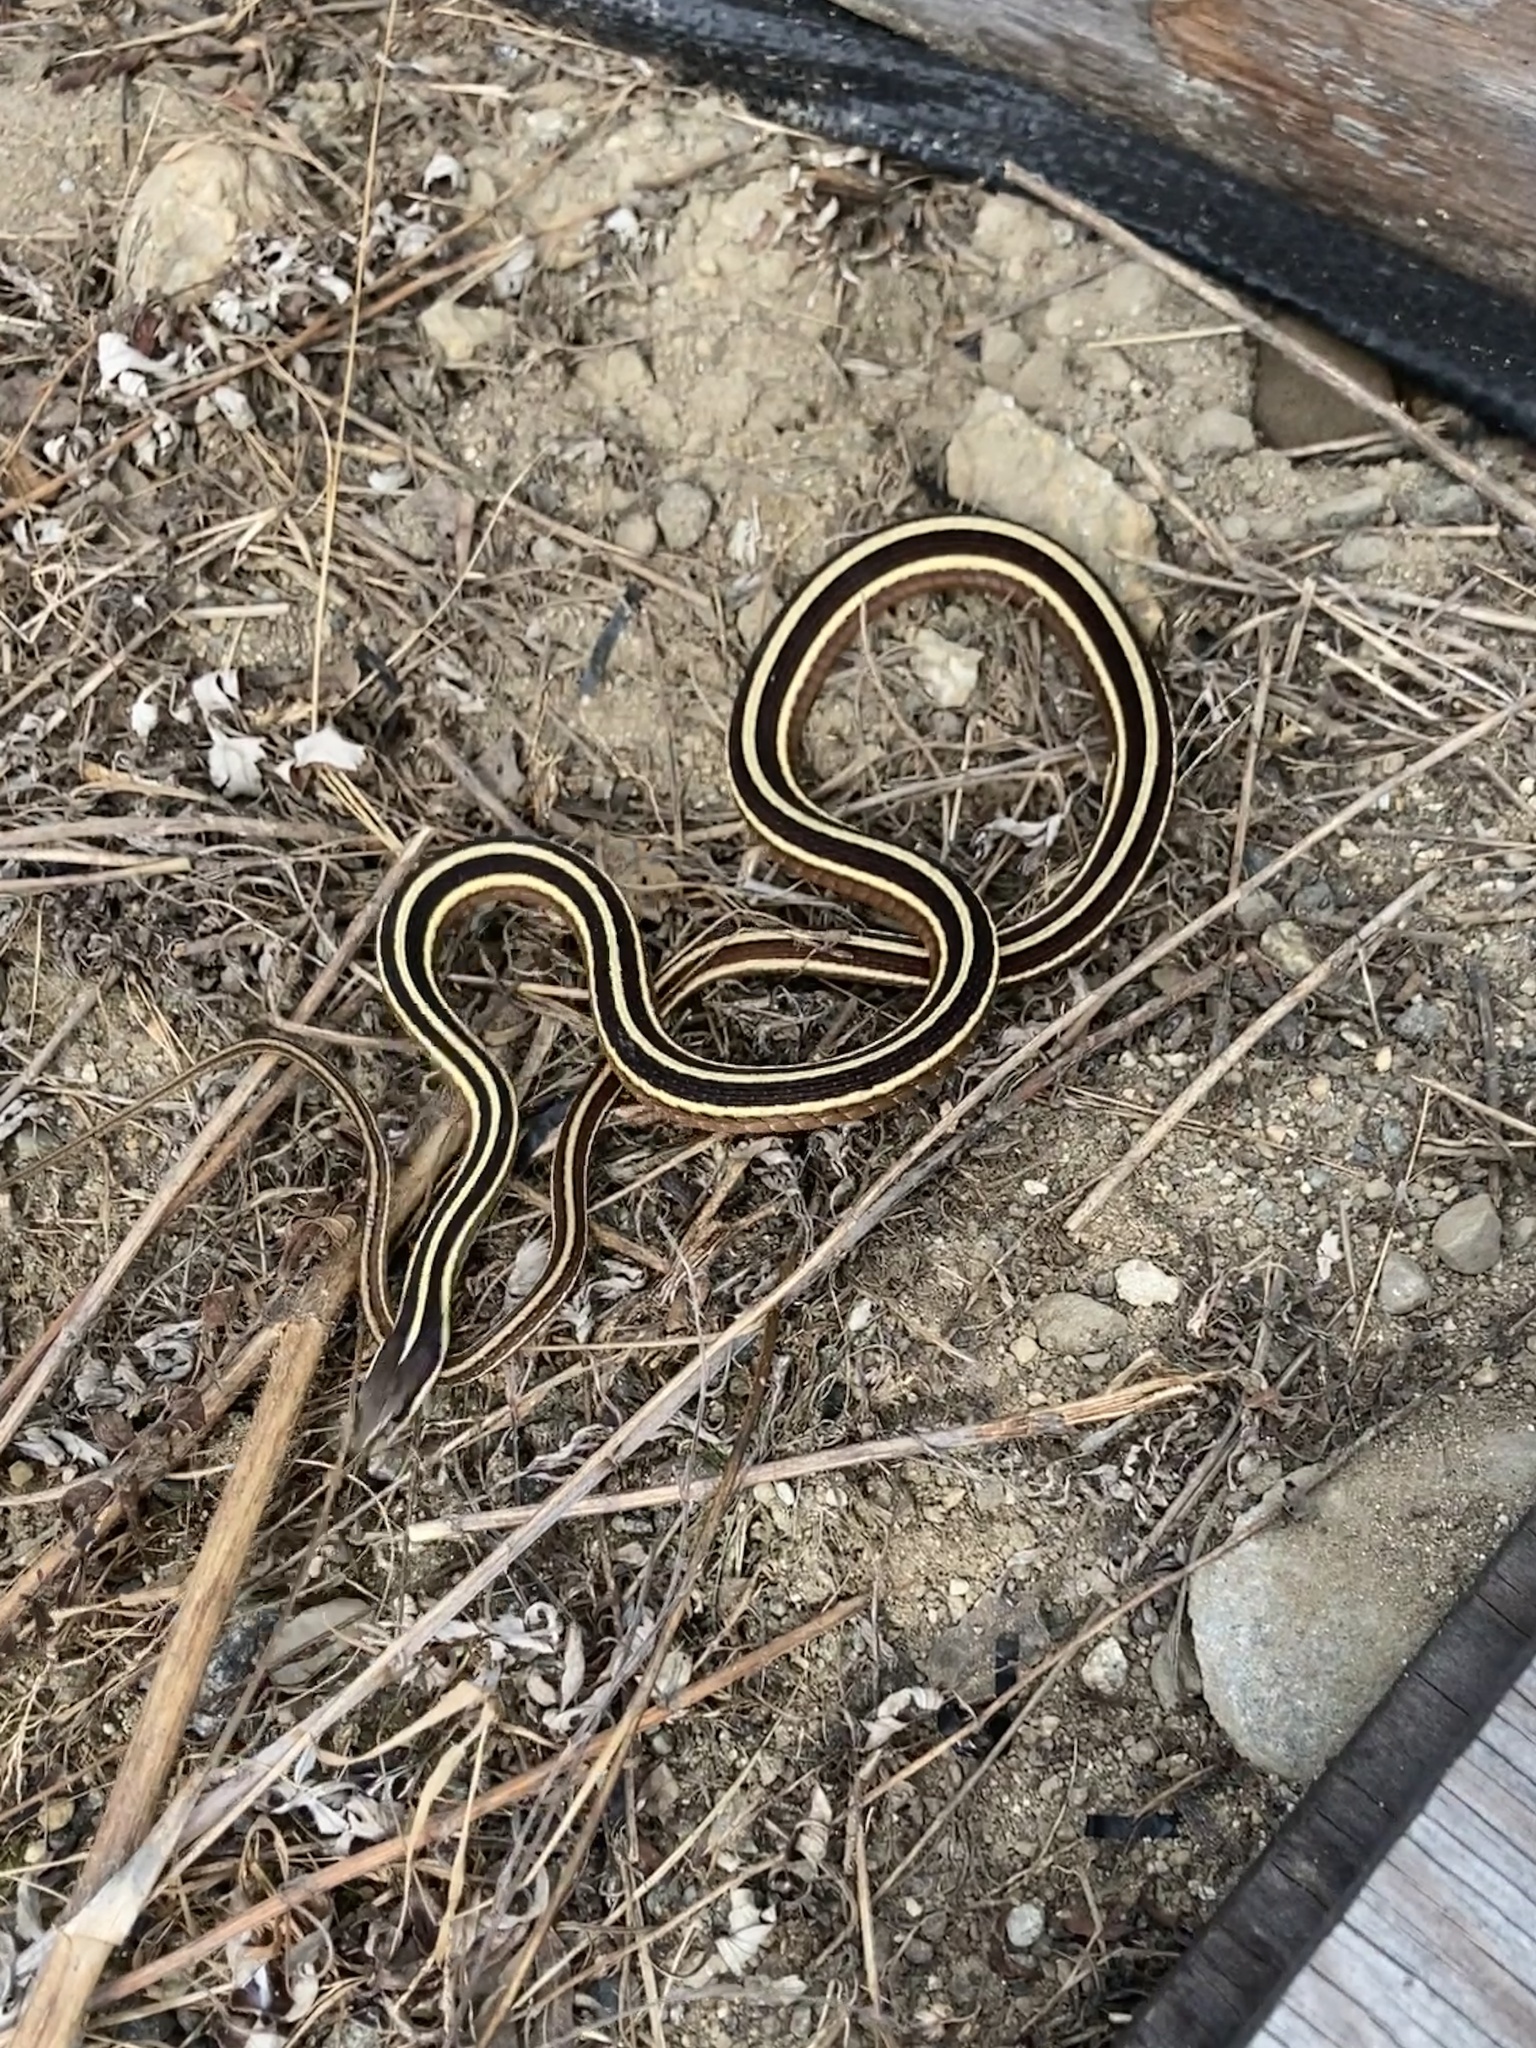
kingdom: Animalia
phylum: Chordata
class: Squamata
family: Colubridae
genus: Thamnophis
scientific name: Thamnophis saurita
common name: Eastern ribbonsnake
